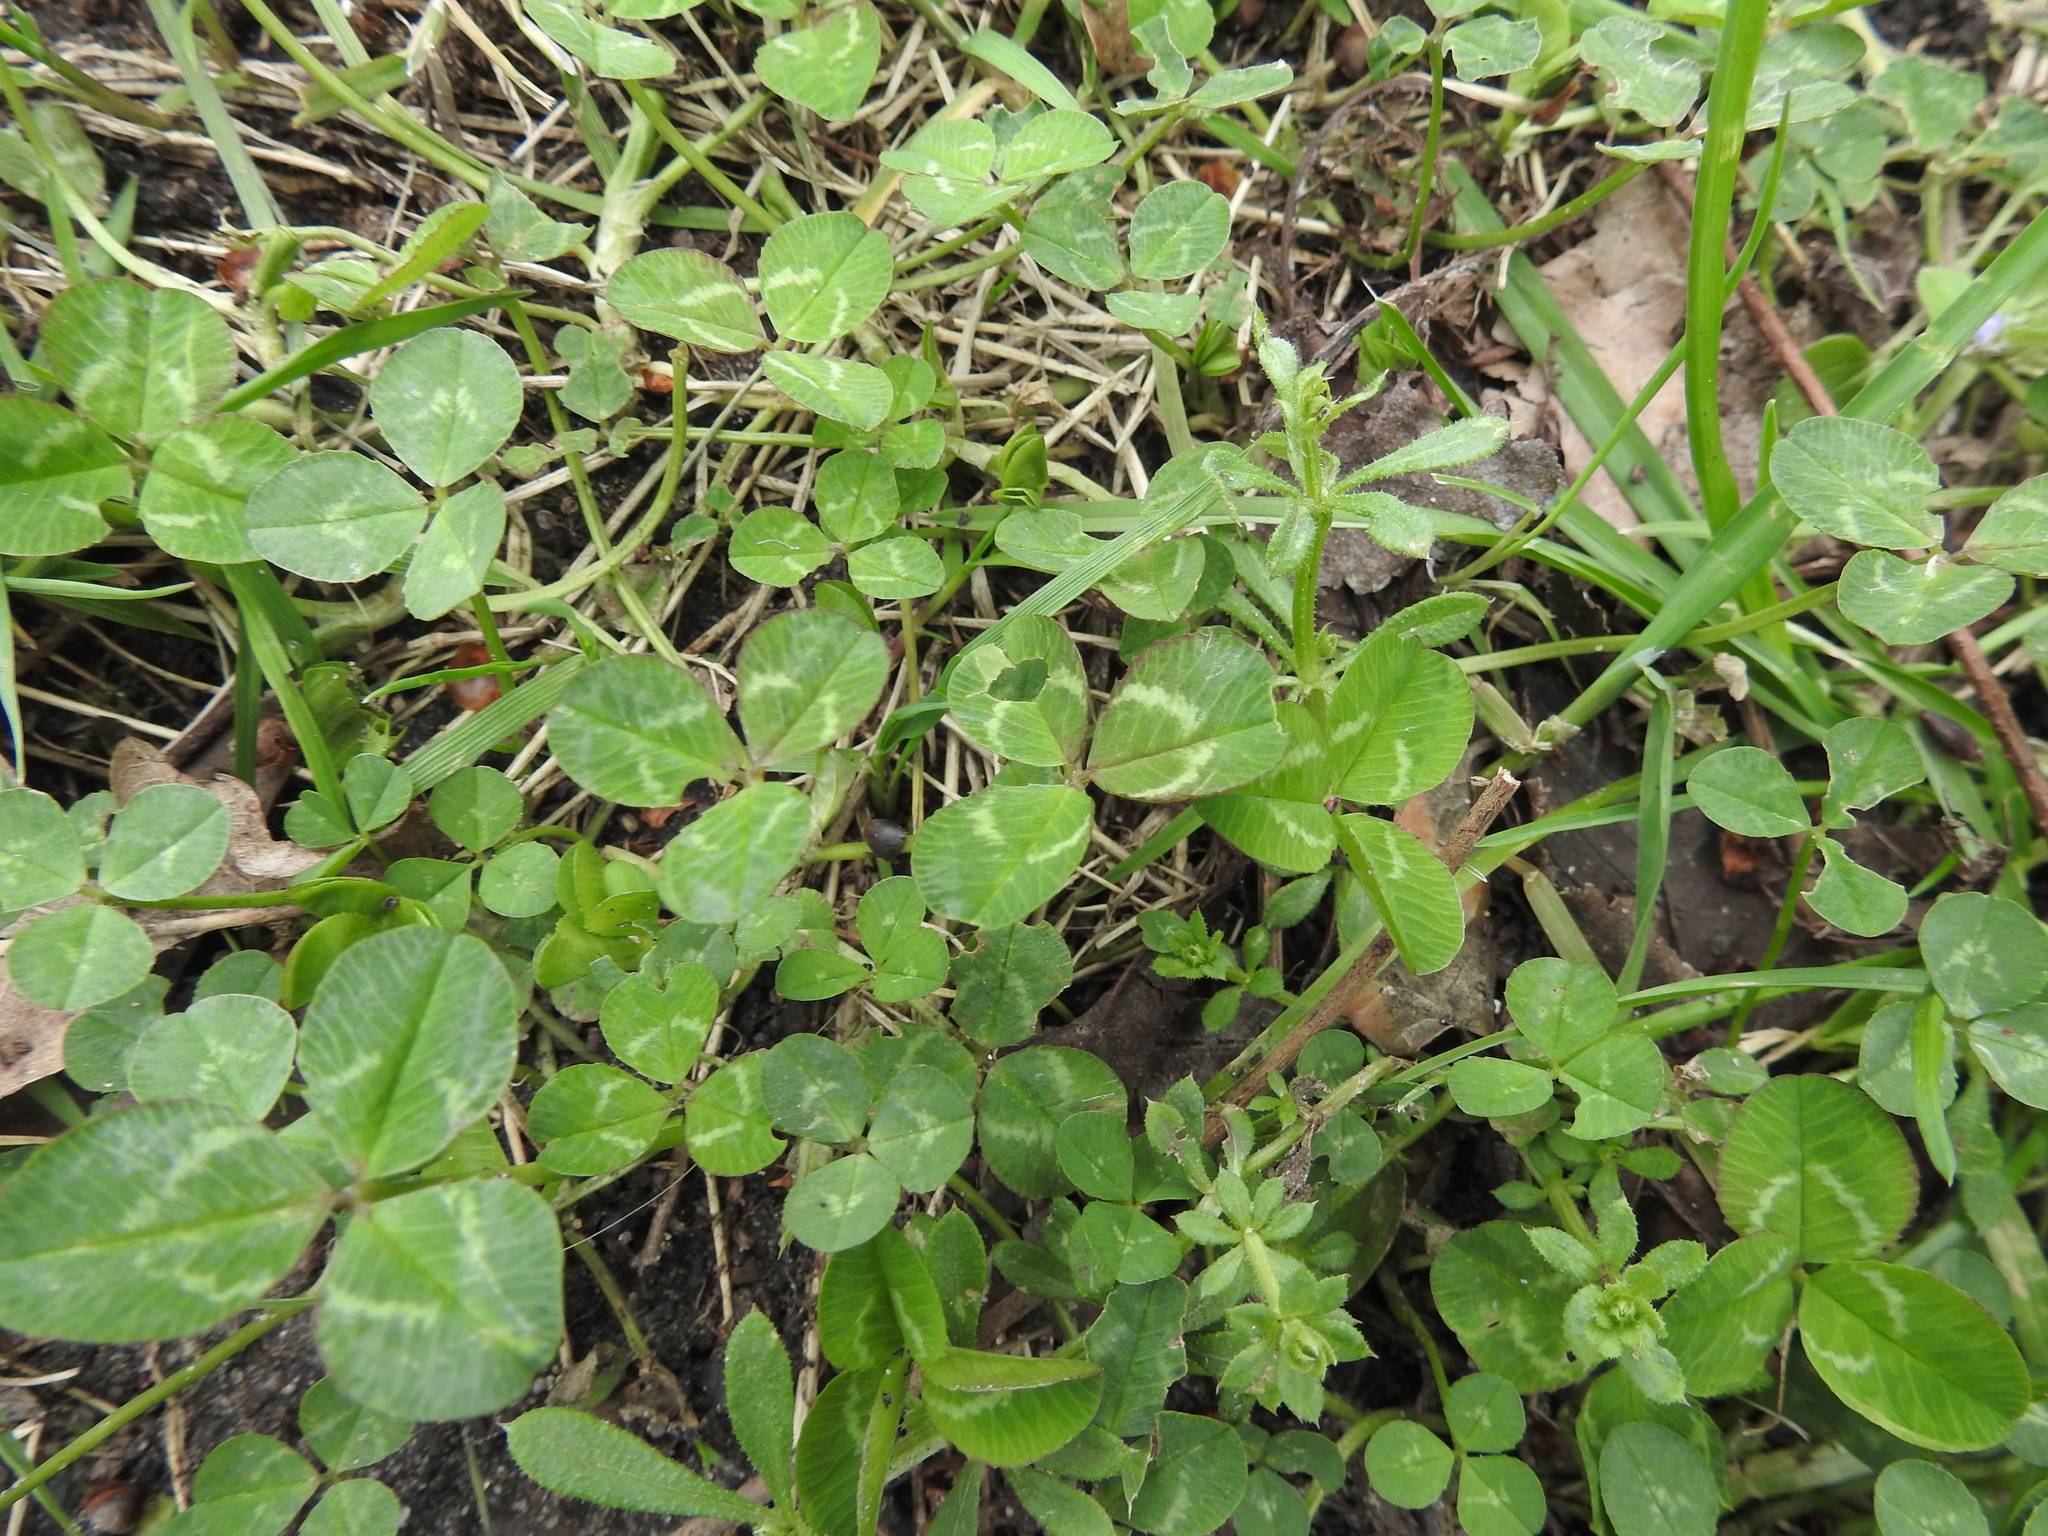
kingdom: Plantae
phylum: Tracheophyta
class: Magnoliopsida
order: Fabales
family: Fabaceae
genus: Trifolium
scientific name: Trifolium repens
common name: White clover
